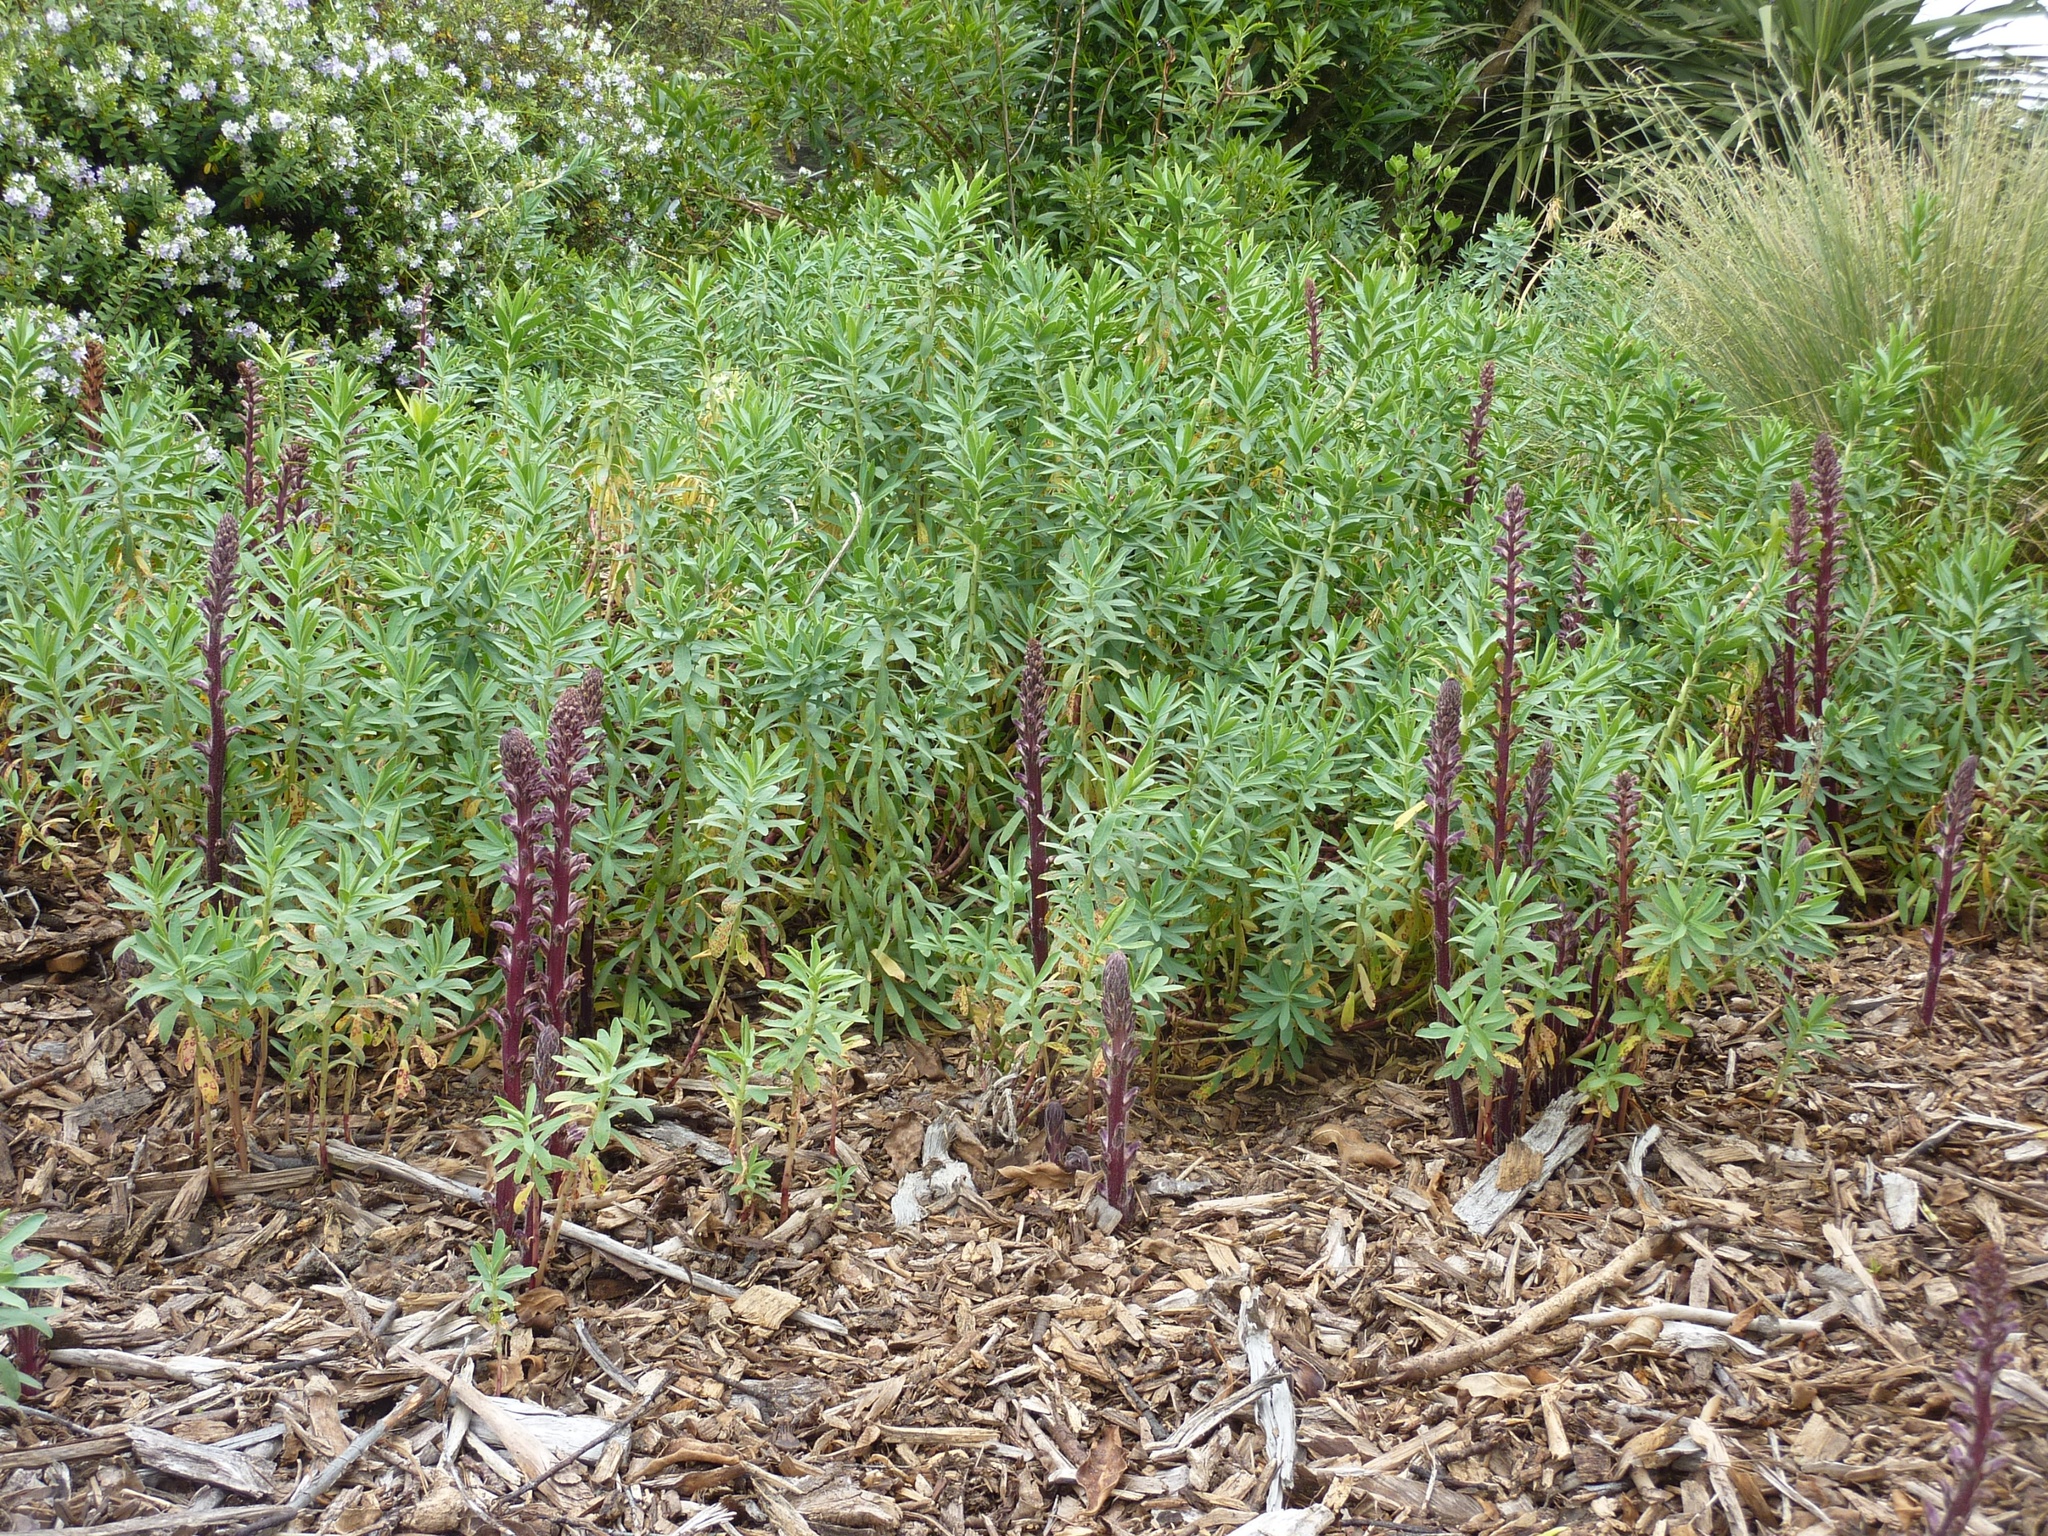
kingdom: Plantae
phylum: Tracheophyta
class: Magnoliopsida
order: Lamiales
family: Orobanchaceae
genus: Orobanche
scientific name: Orobanche minor
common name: Common broomrape
